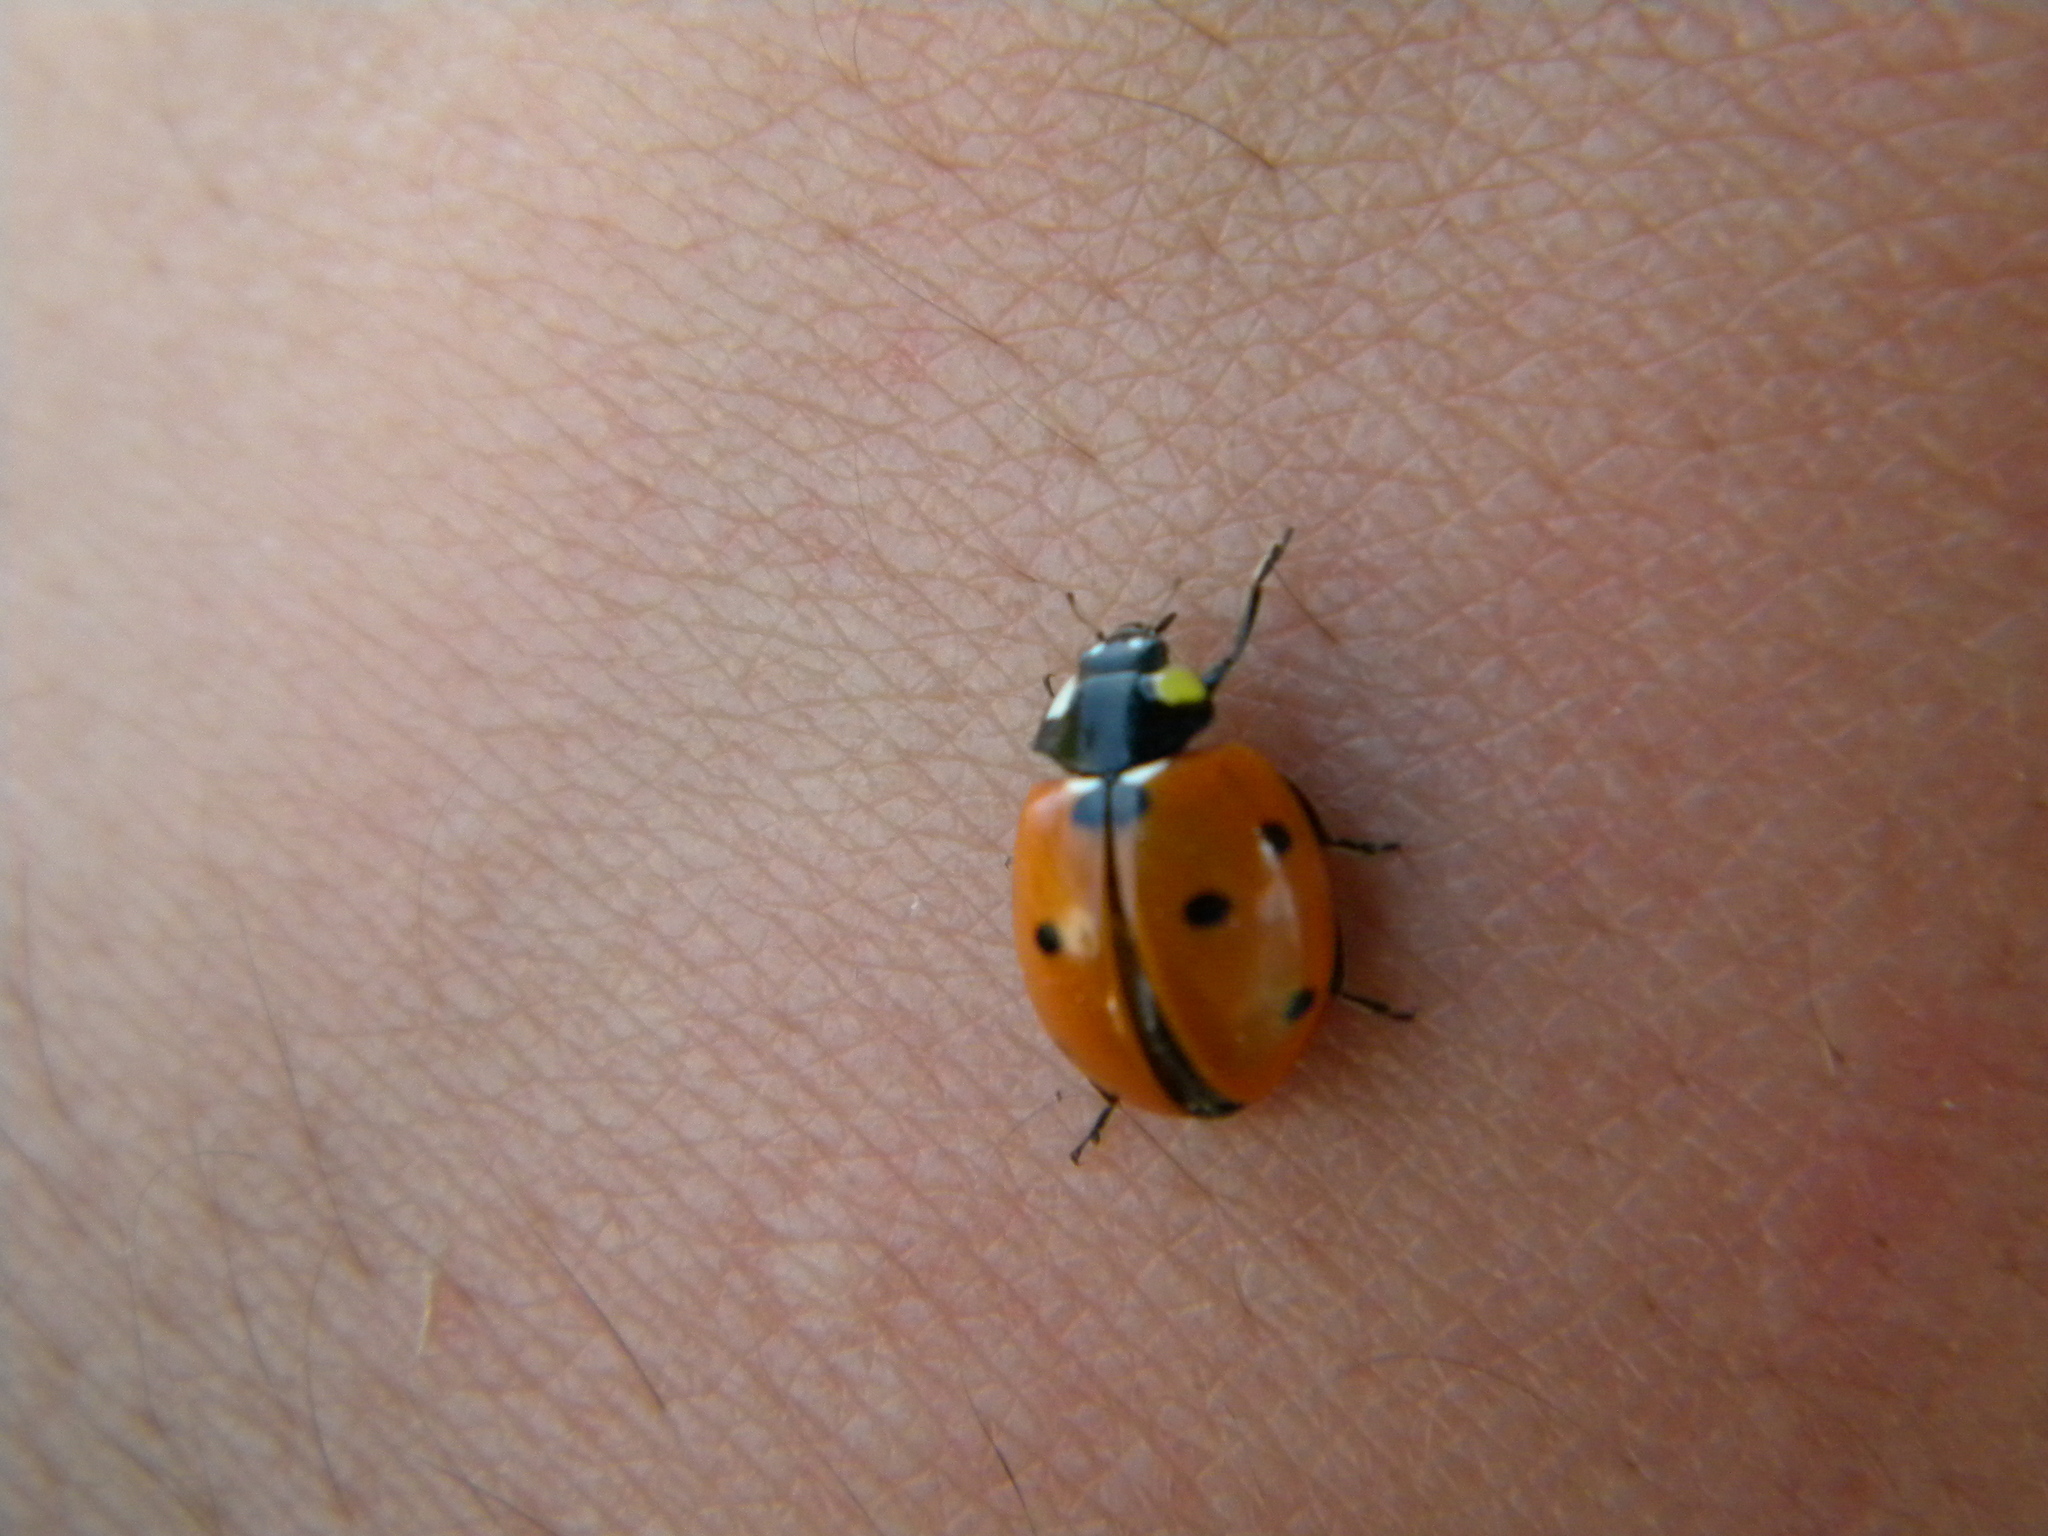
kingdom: Animalia
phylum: Arthropoda
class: Insecta
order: Coleoptera
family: Coccinellidae
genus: Coccinella
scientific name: Coccinella septempunctata
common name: Sevenspotted lady beetle
